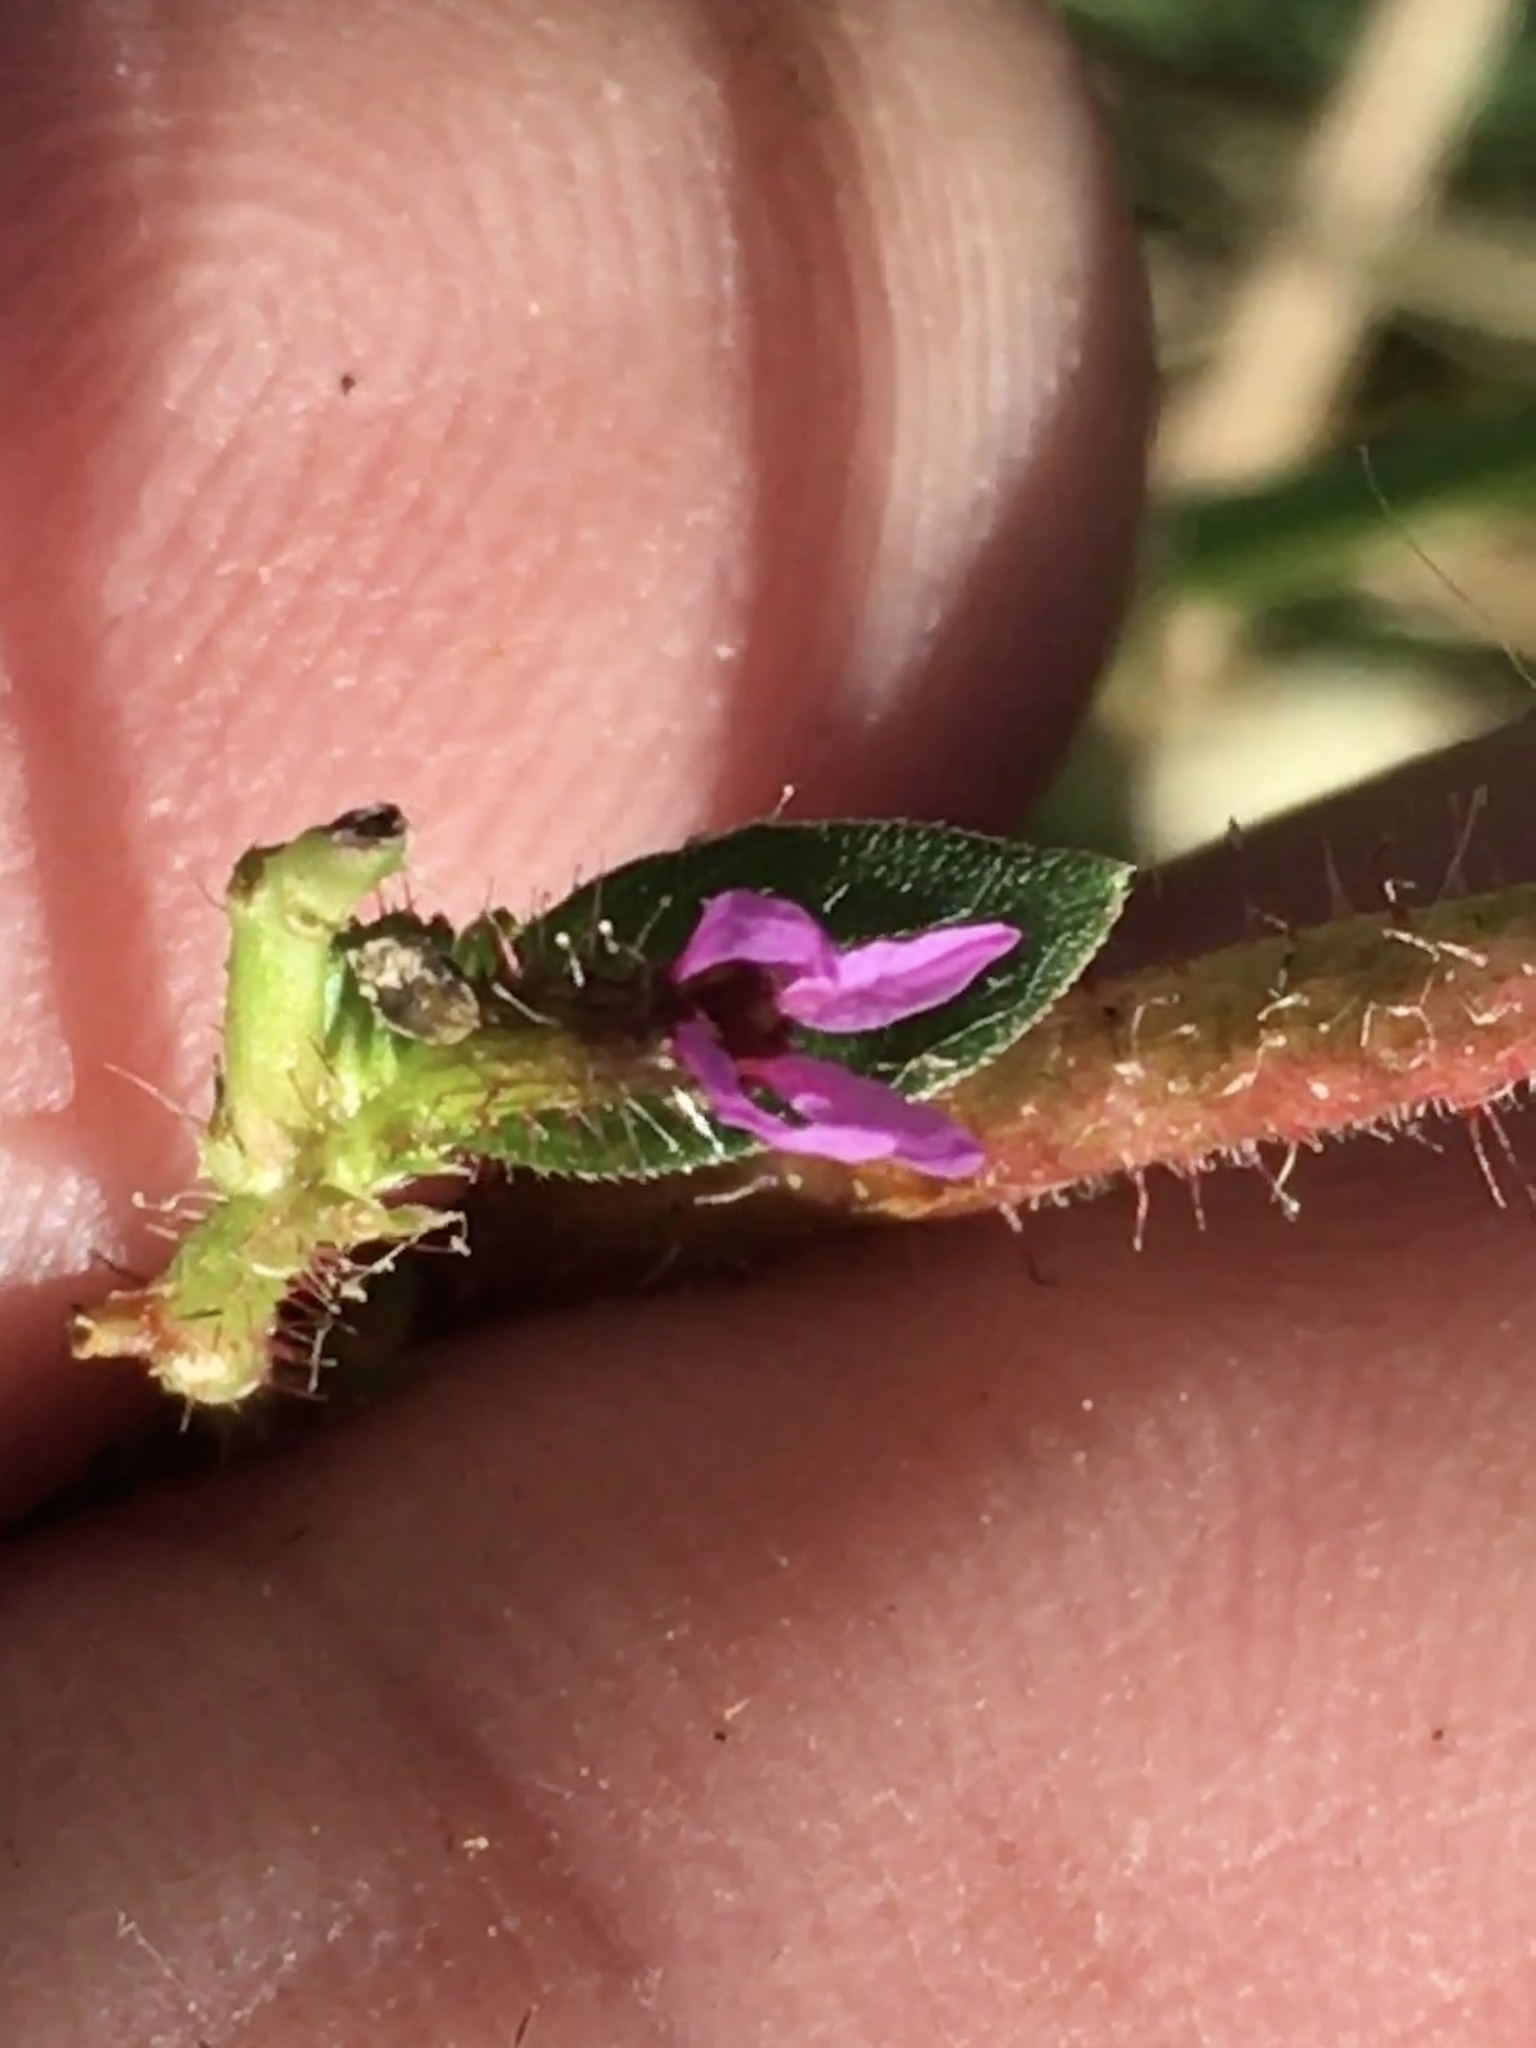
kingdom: Plantae
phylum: Tracheophyta
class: Magnoliopsida
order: Myrtales
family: Lythraceae
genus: Cuphea
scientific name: Cuphea carthagenensis
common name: Colombian waxweed
